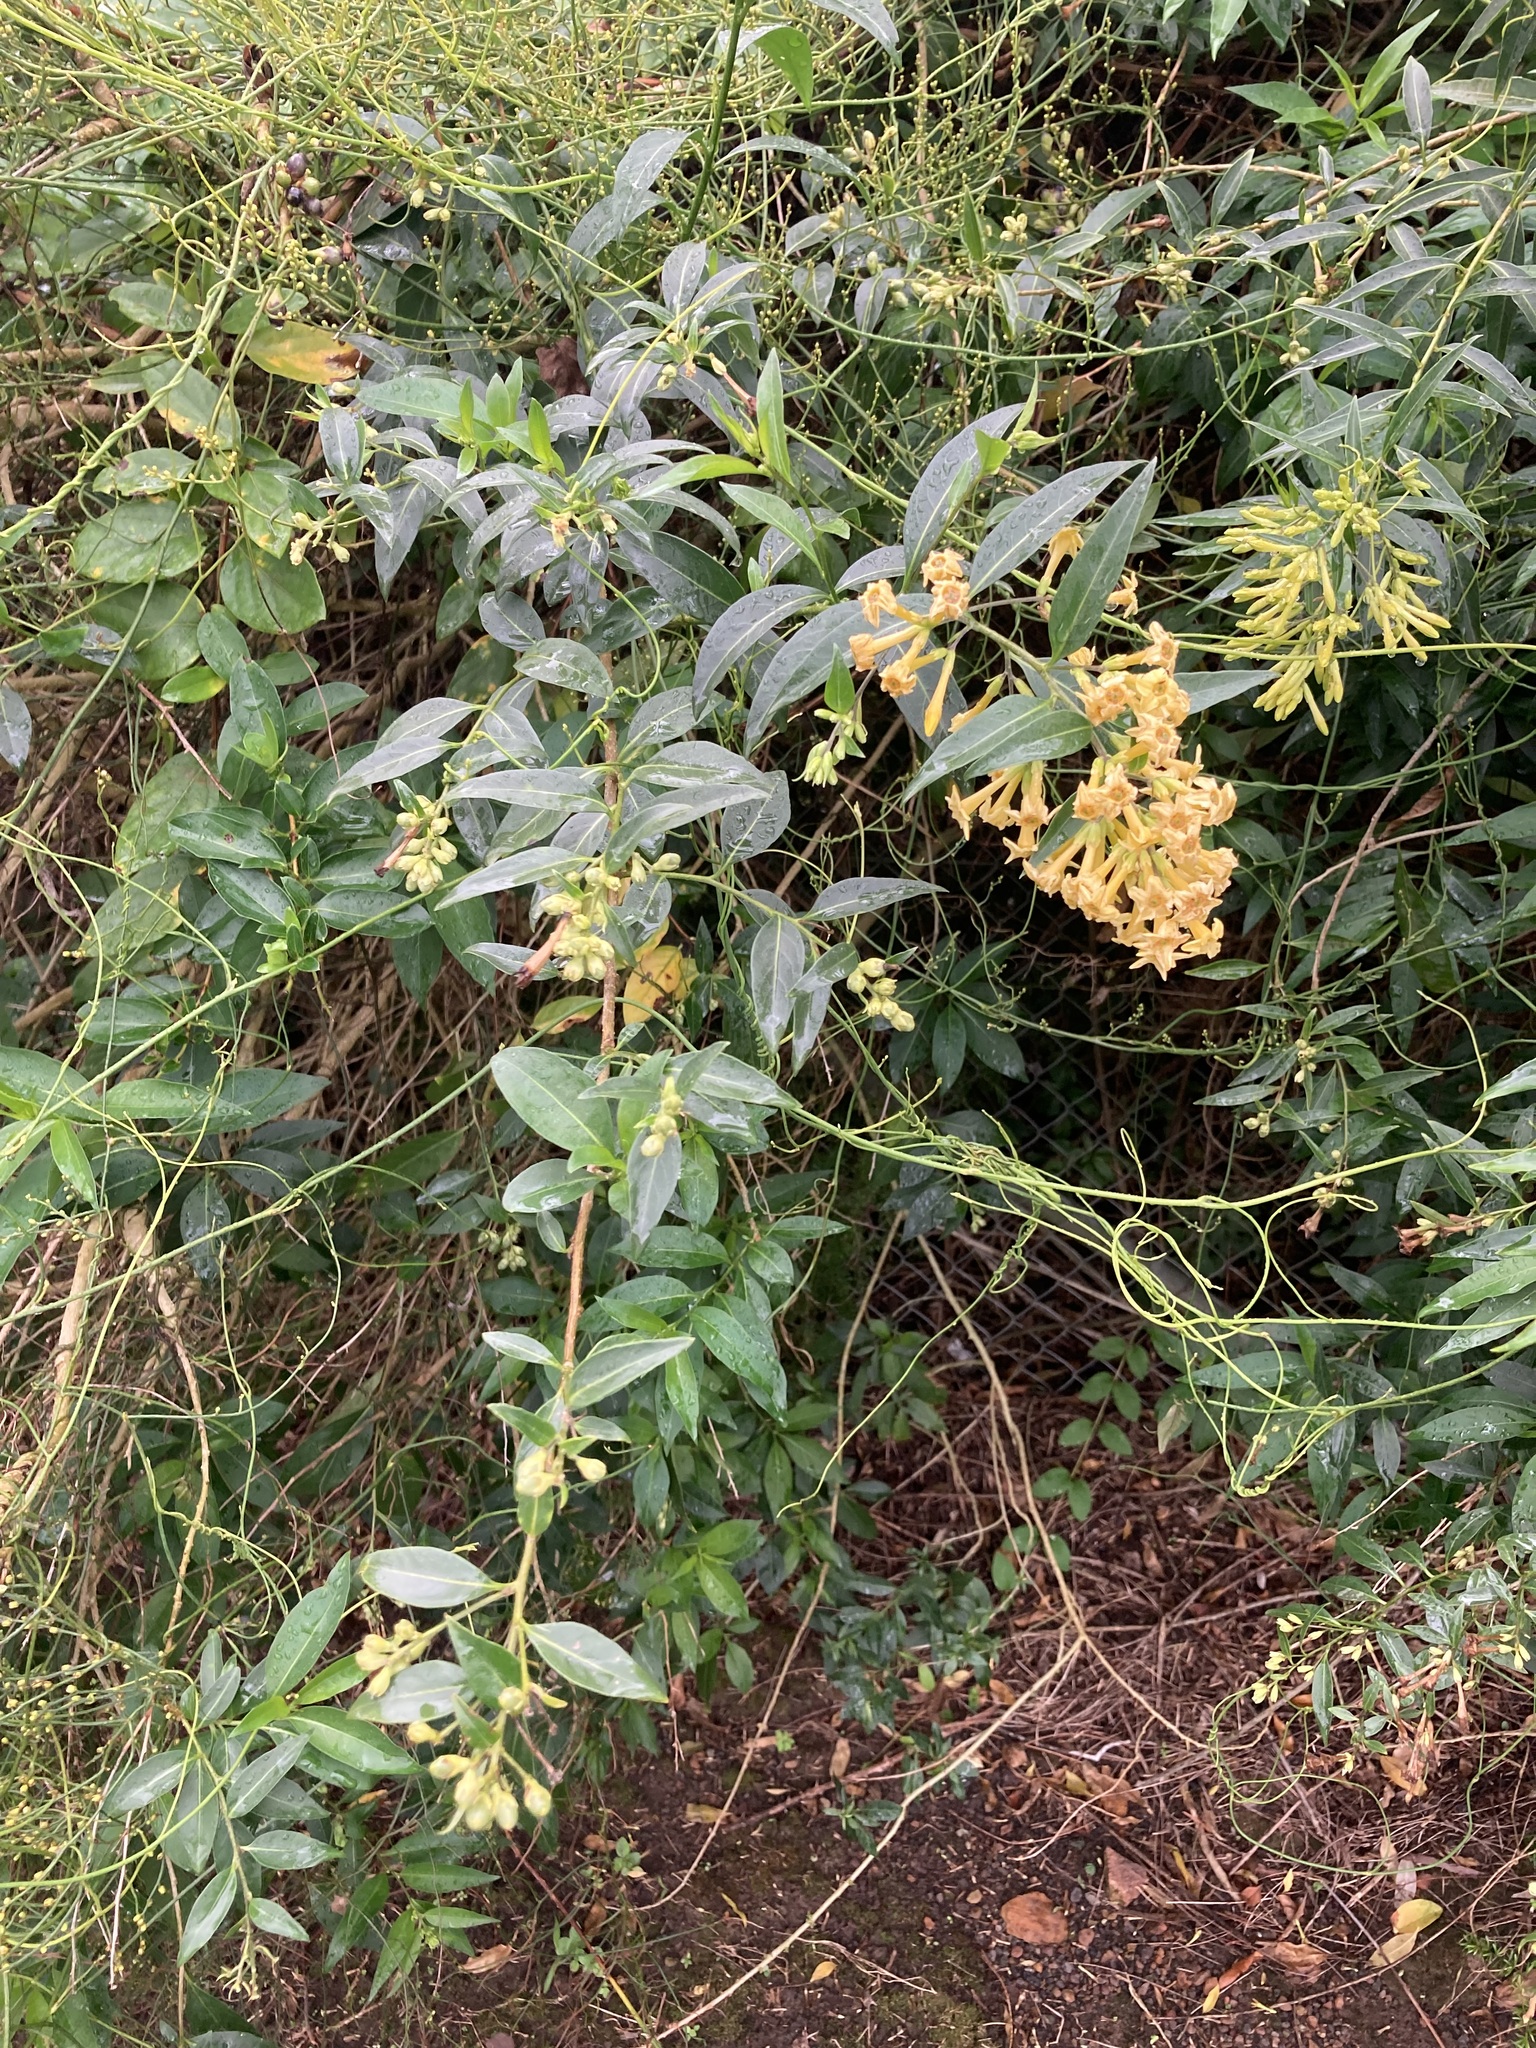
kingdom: Plantae
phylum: Tracheophyta
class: Magnoliopsida
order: Solanales
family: Solanaceae
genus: Cestrum
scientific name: Cestrum parqui
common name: Chilean cestrum
